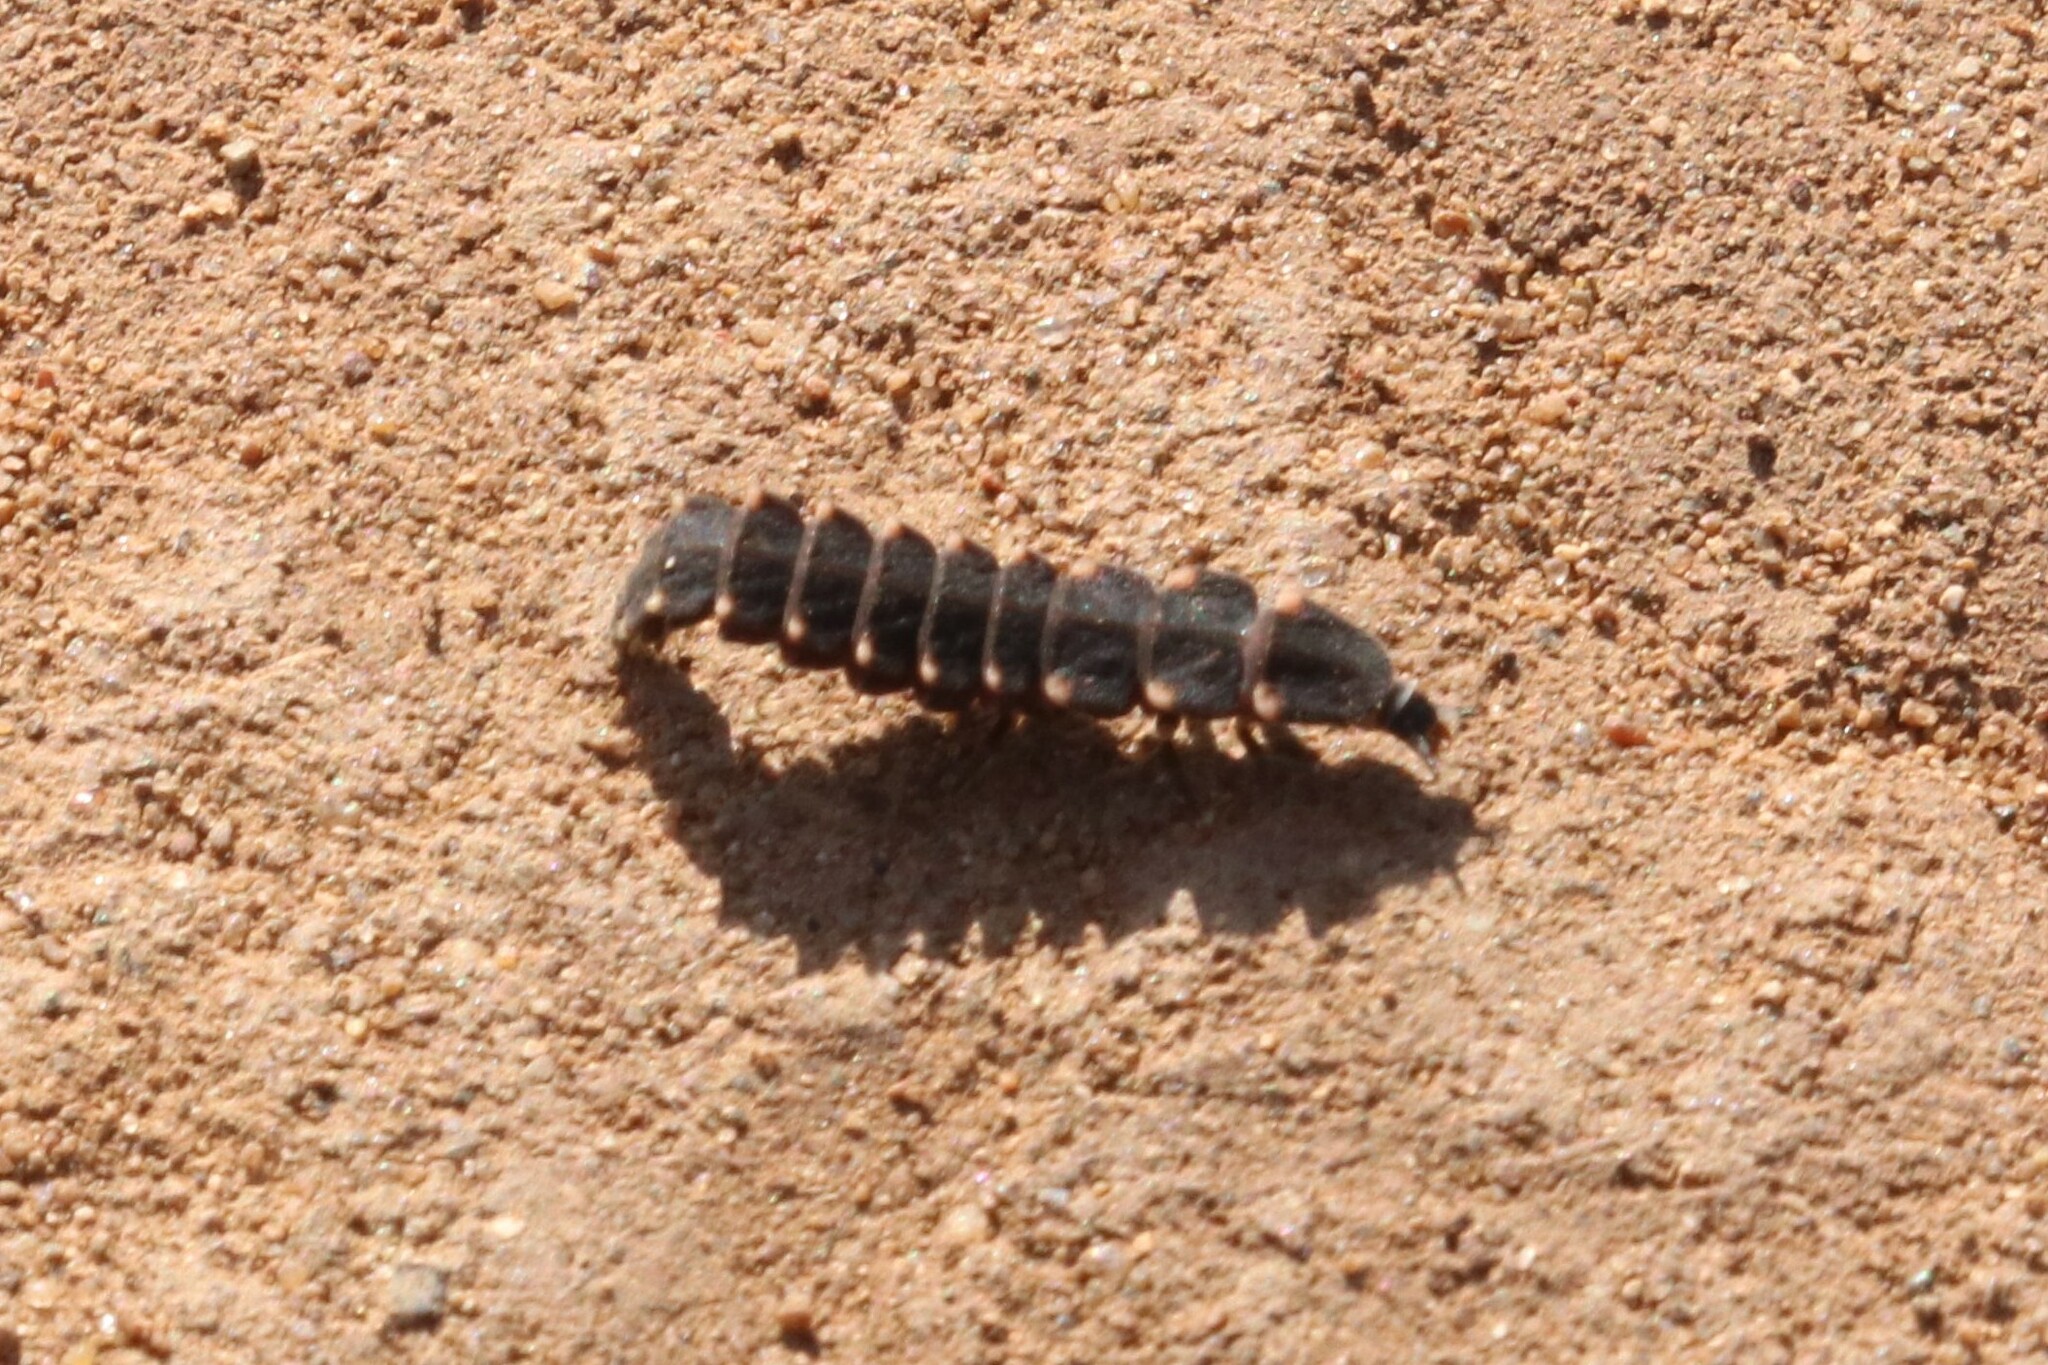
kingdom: Animalia
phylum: Arthropoda
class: Insecta
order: Coleoptera
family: Lampyridae
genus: Lampyris
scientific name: Lampyris noctiluca
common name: Glow-worm
